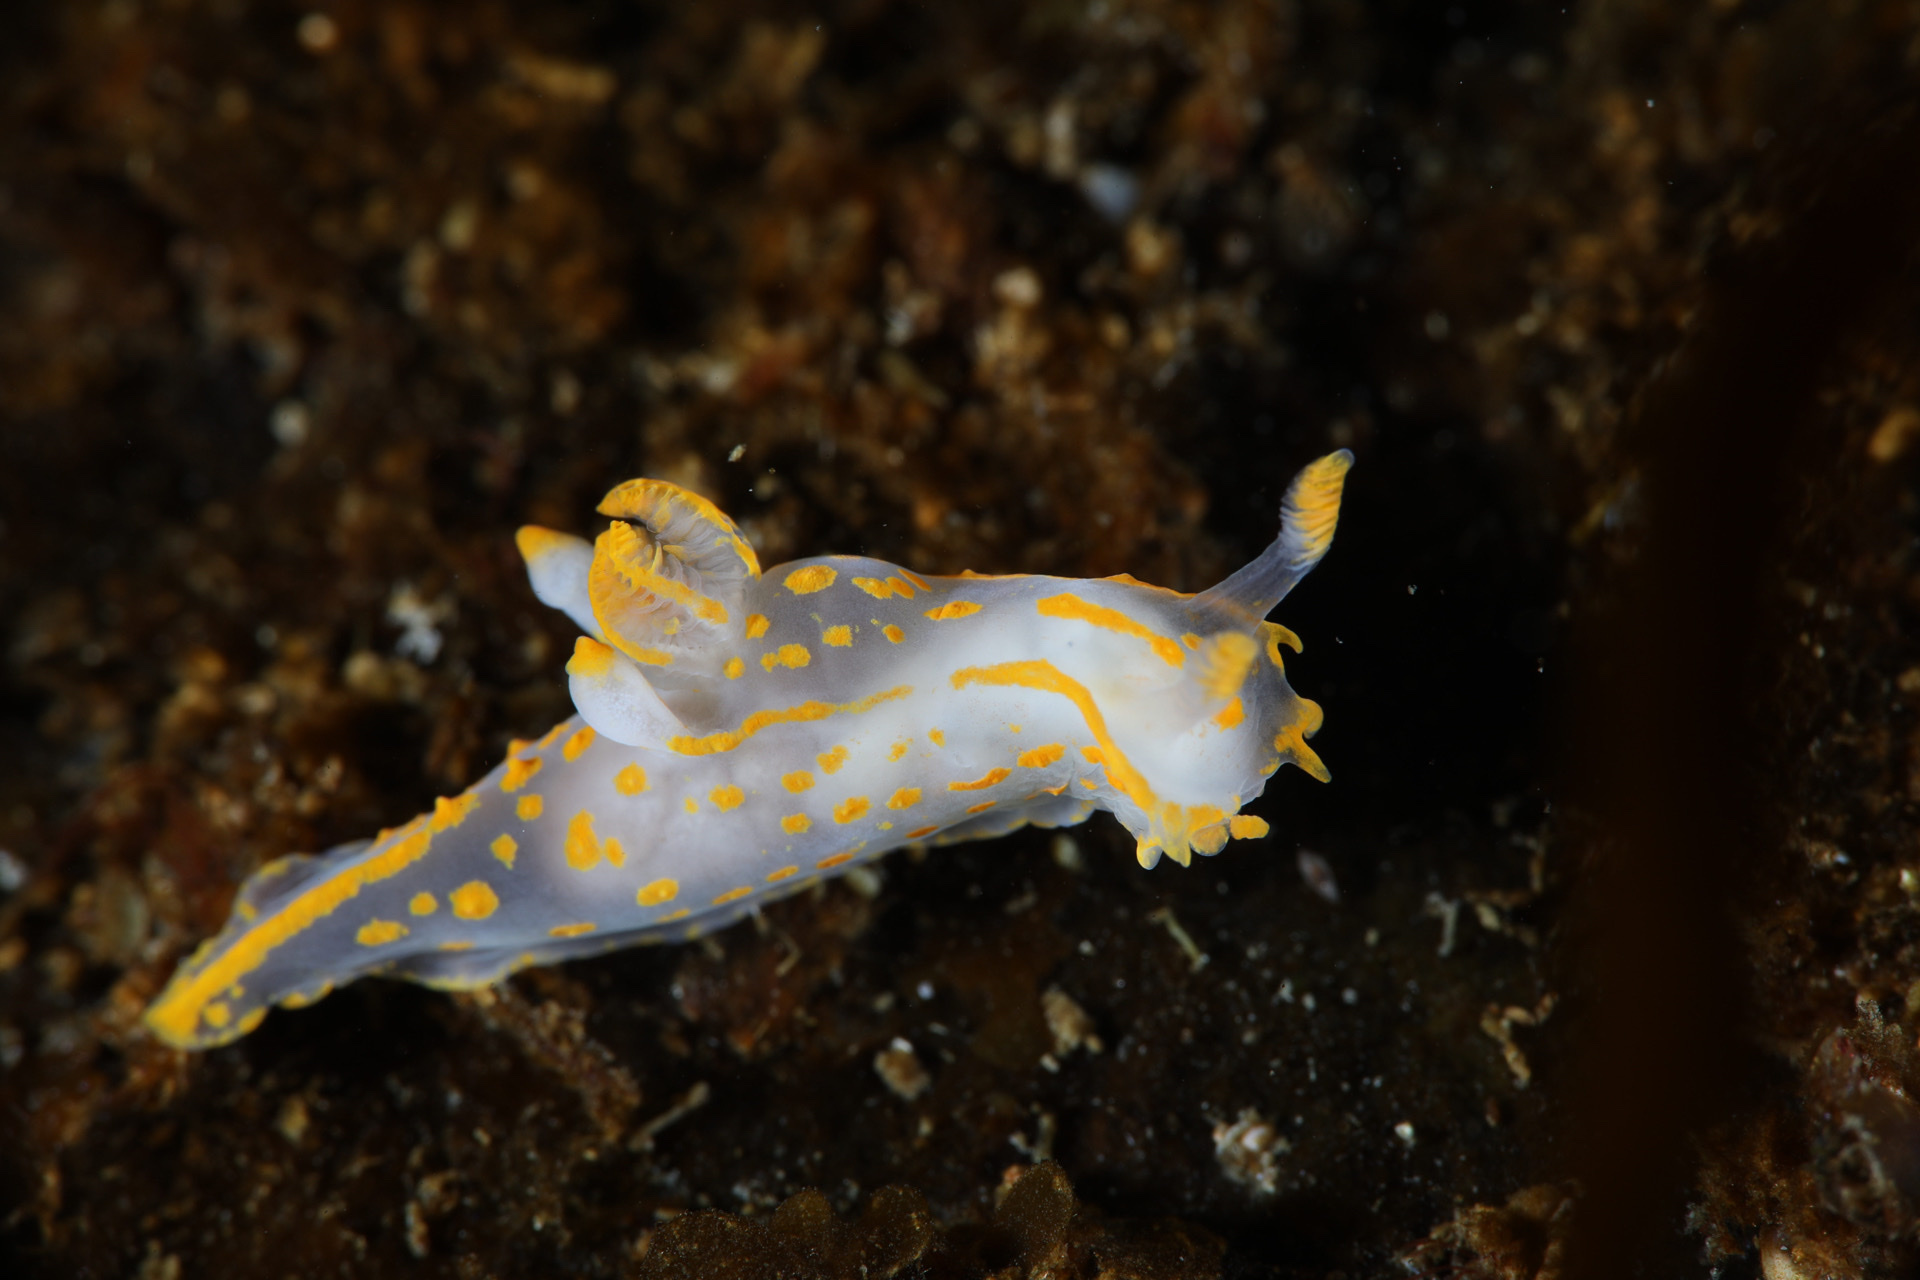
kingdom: Animalia
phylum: Mollusca
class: Gastropoda
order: Nudibranchia
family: Polyceridae
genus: Polycera
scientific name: Polycera quadrilineata
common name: Four-striped polycera
